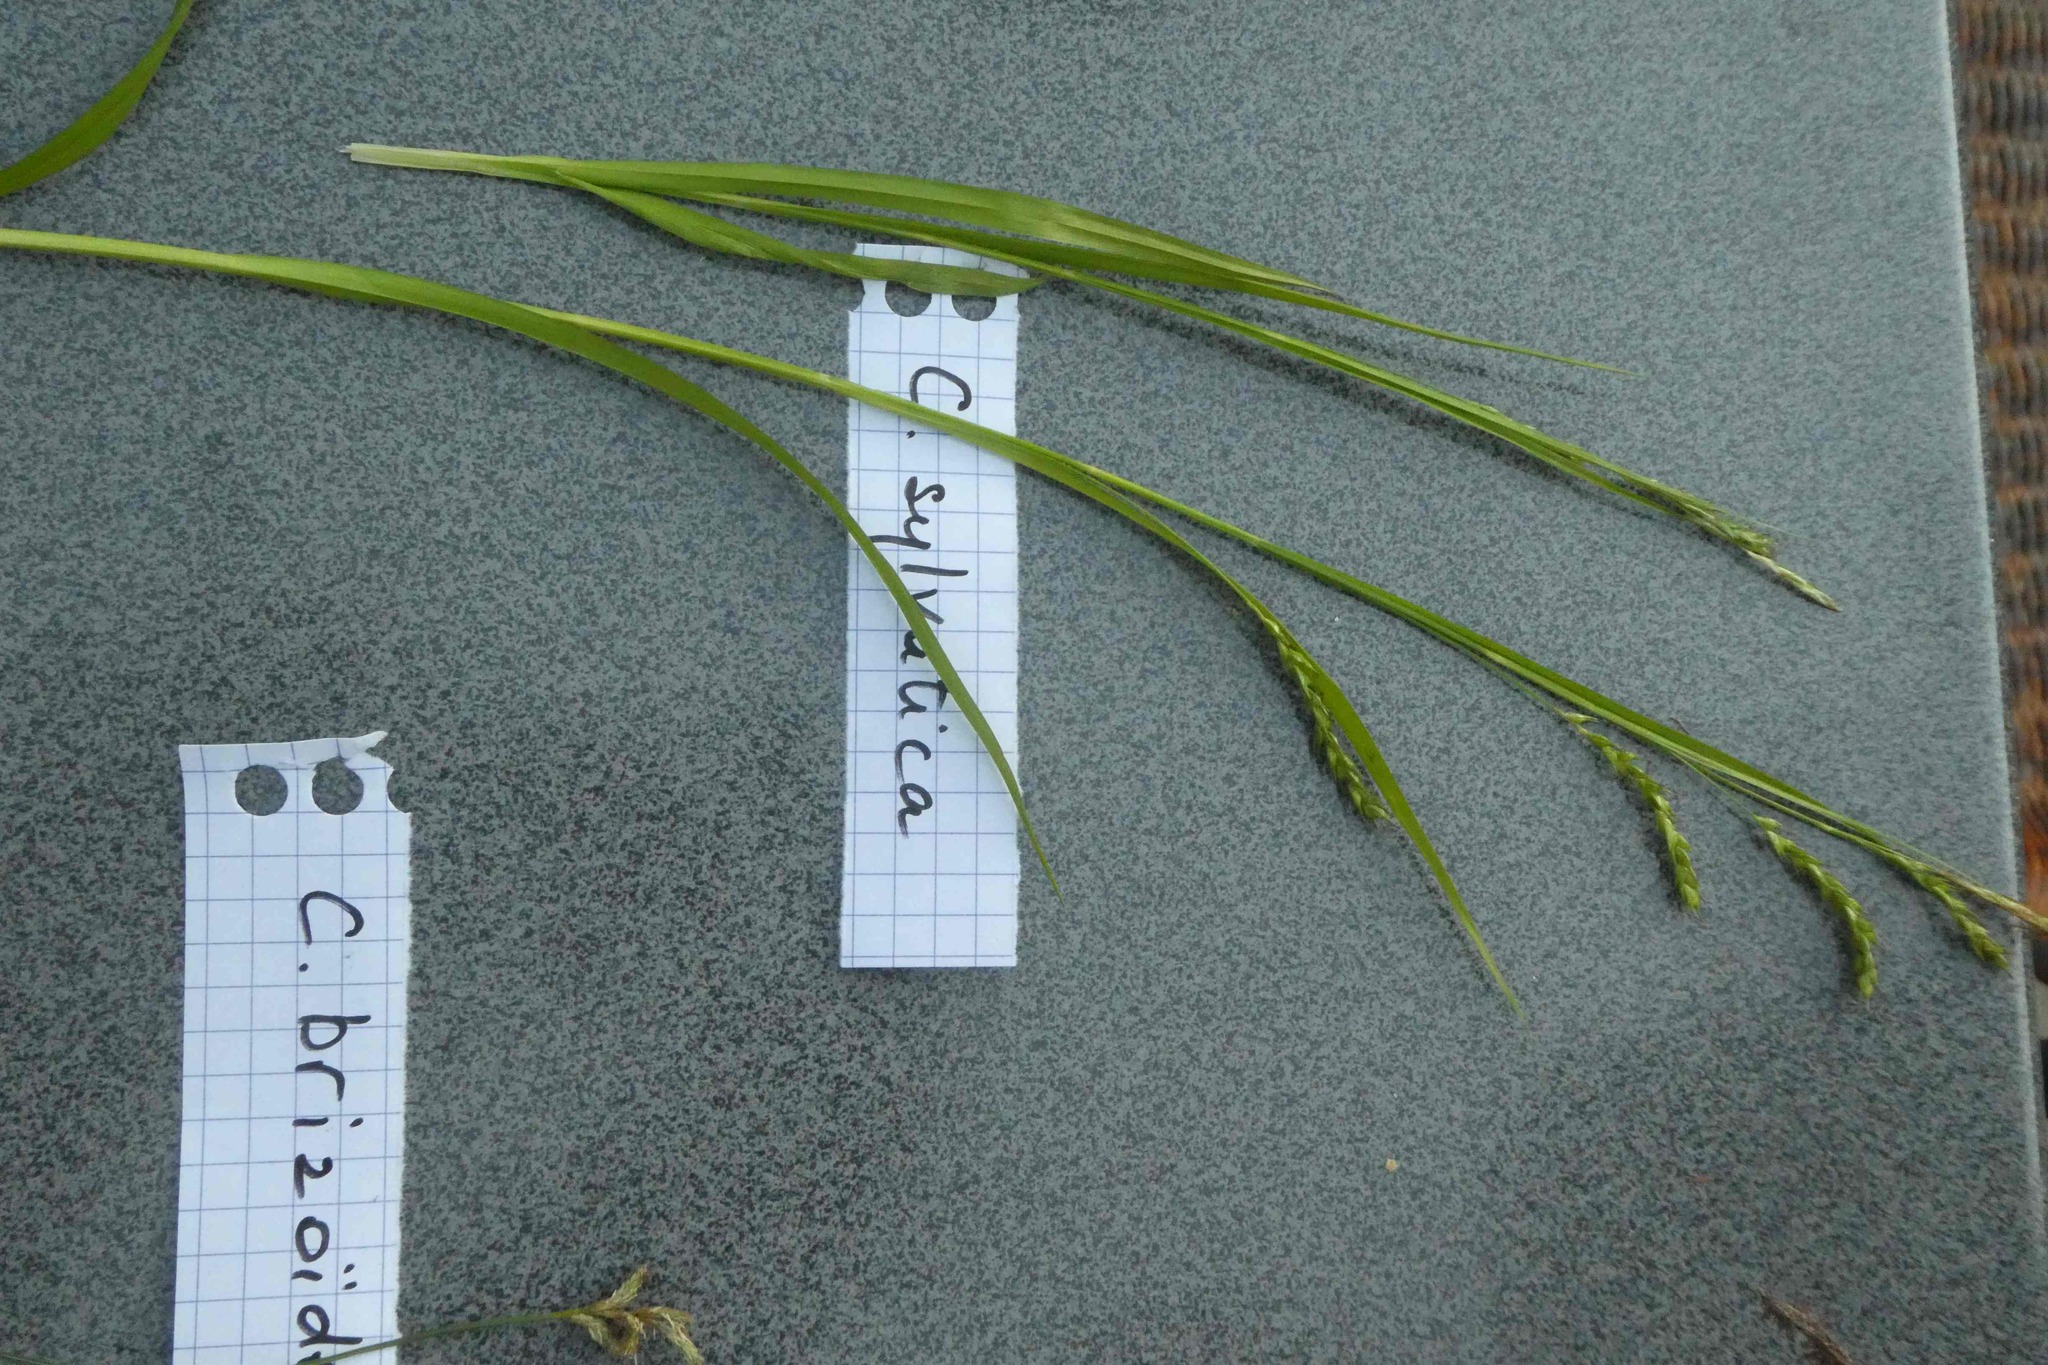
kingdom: Plantae
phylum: Tracheophyta
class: Liliopsida
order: Poales
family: Cyperaceae
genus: Carex
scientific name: Carex sylvatica
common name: Wood-sedge
